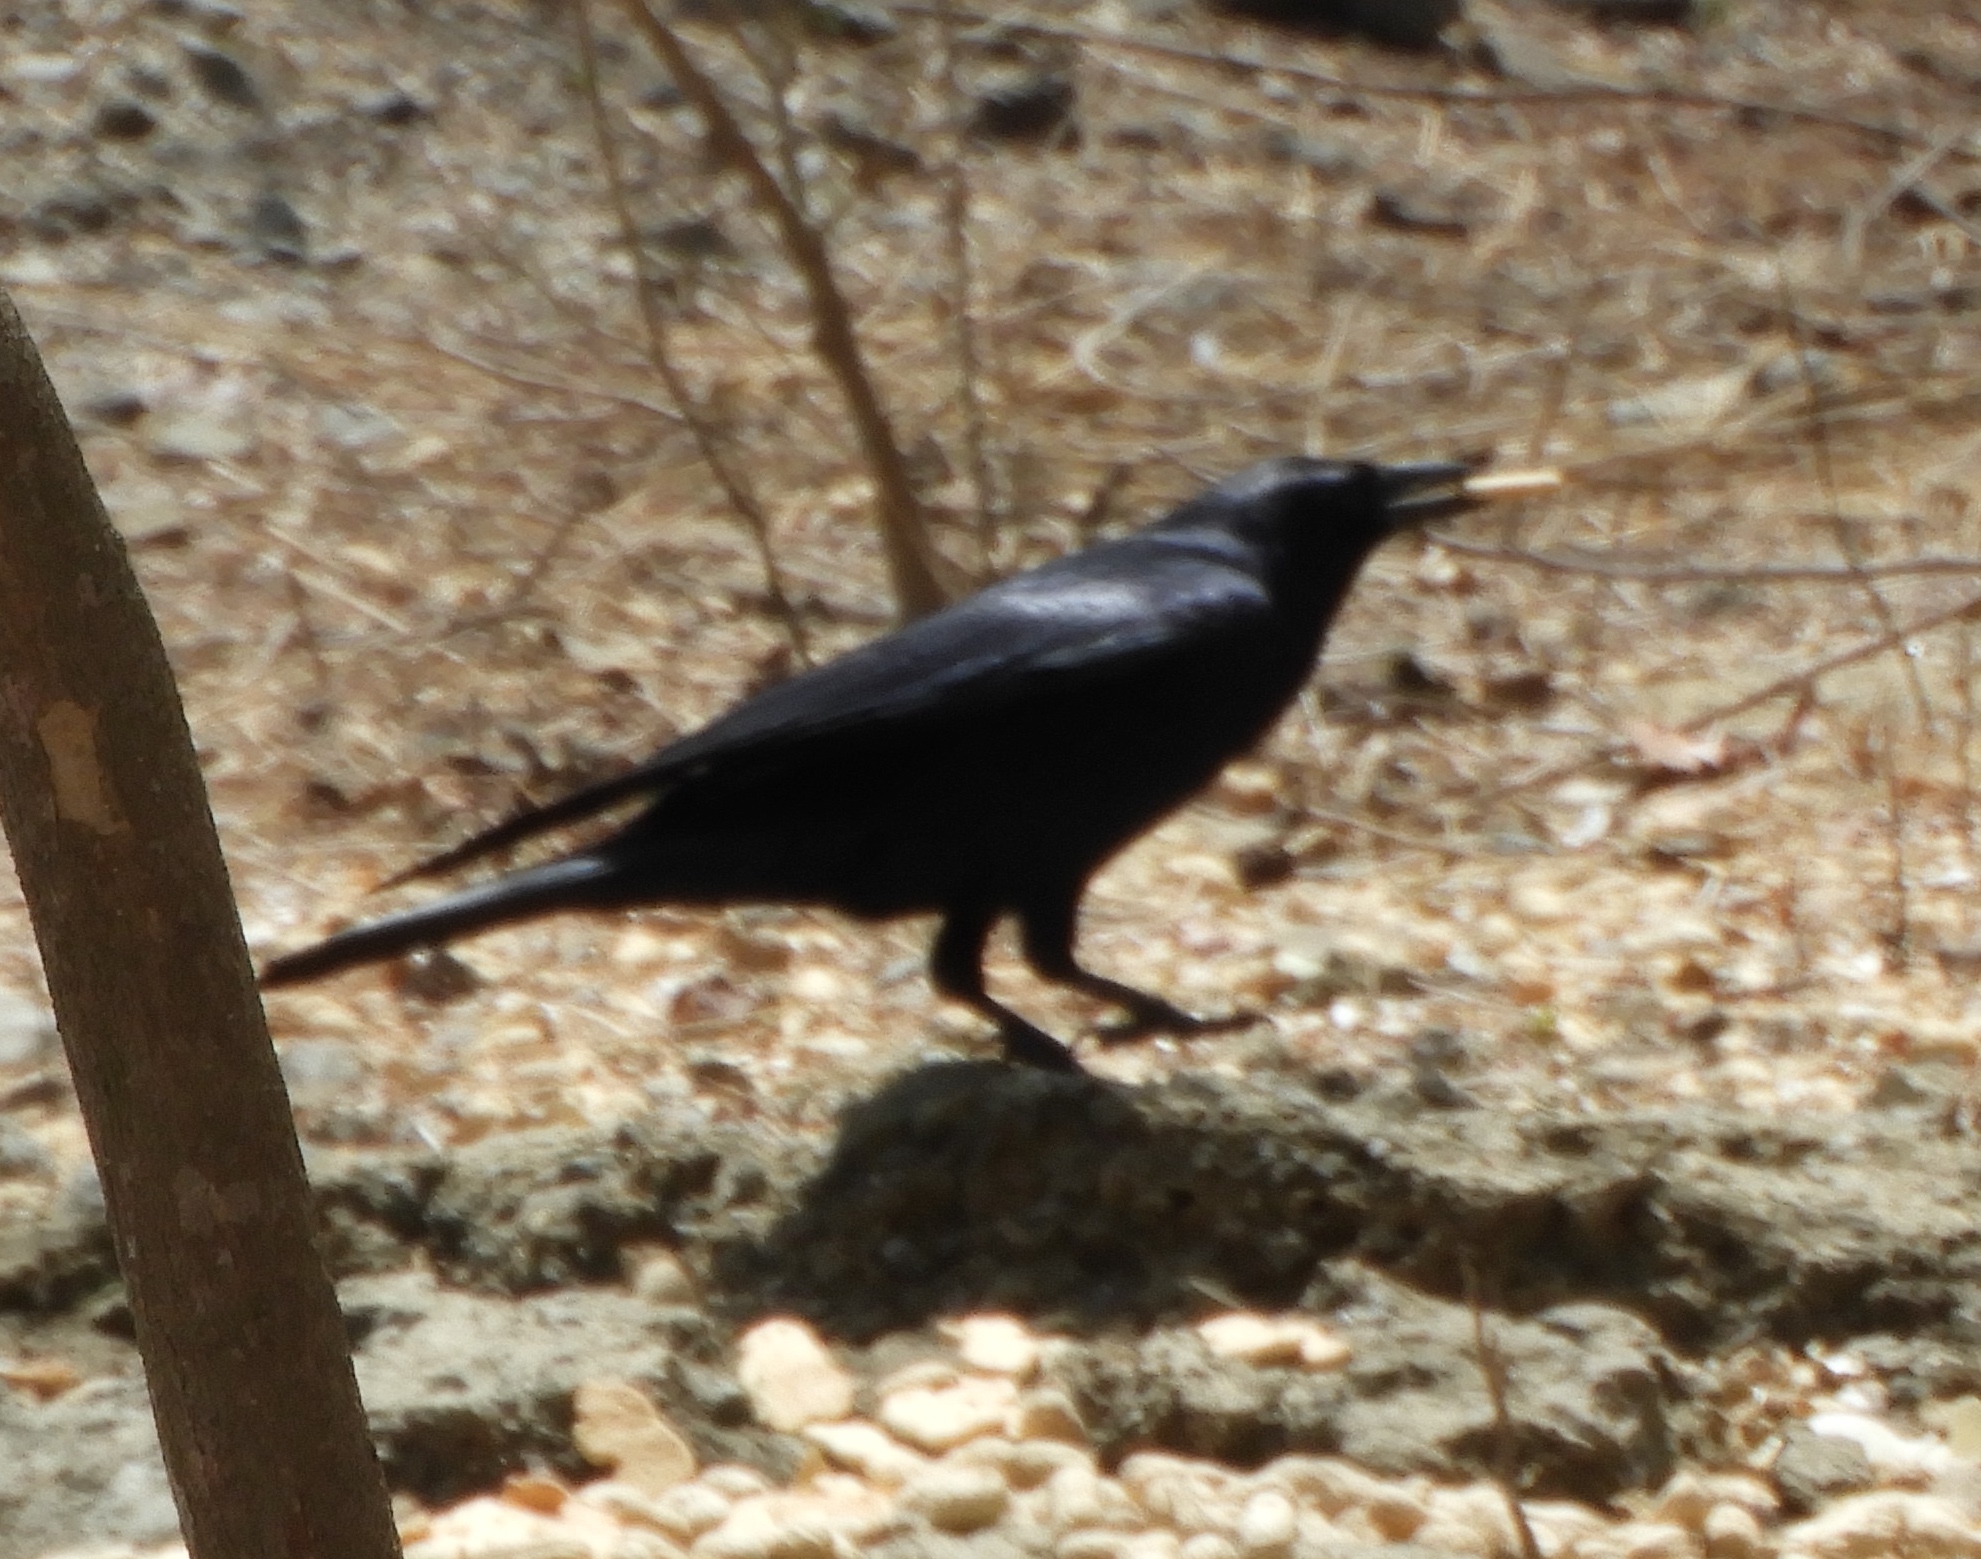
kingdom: Animalia
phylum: Chordata
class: Aves
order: Passeriformes
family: Corvidae
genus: Corvus
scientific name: Corvus sinaloae
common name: Sinaloa crow
